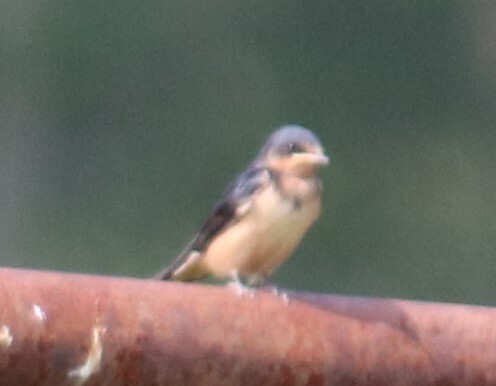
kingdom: Animalia
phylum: Chordata
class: Aves
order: Passeriformes
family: Hirundinidae
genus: Hirundo
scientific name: Hirundo rustica
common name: Barn swallow
